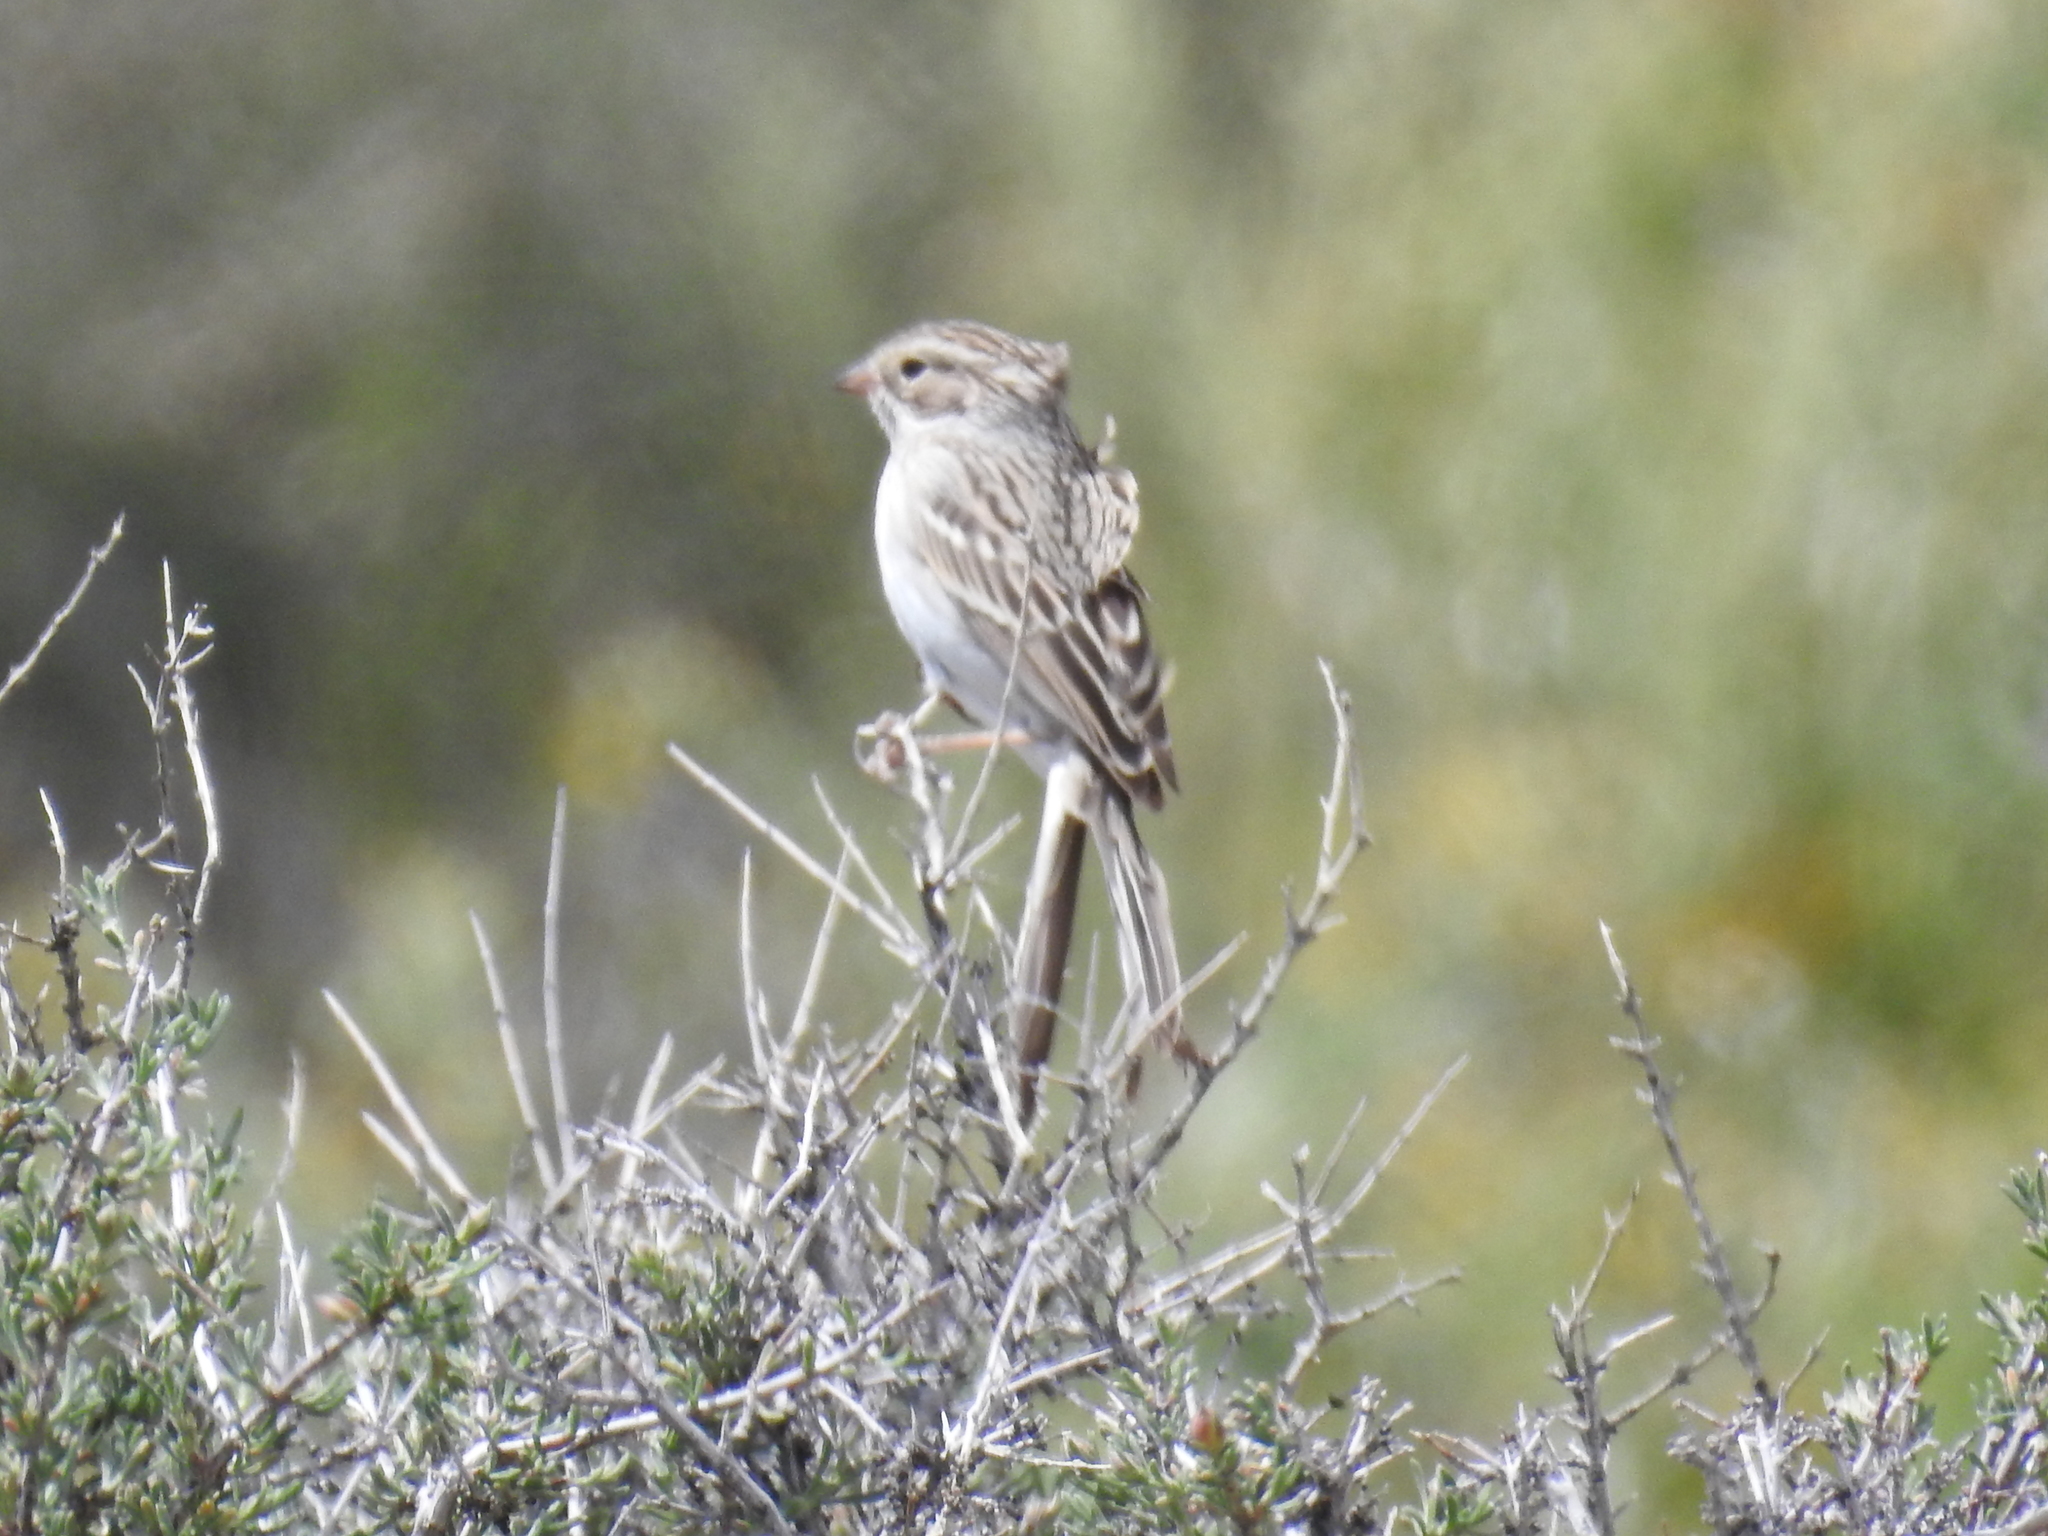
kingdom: Animalia
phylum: Chordata
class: Aves
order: Passeriformes
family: Passerellidae
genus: Spizella
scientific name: Spizella breweri
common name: Brewer's sparrow
